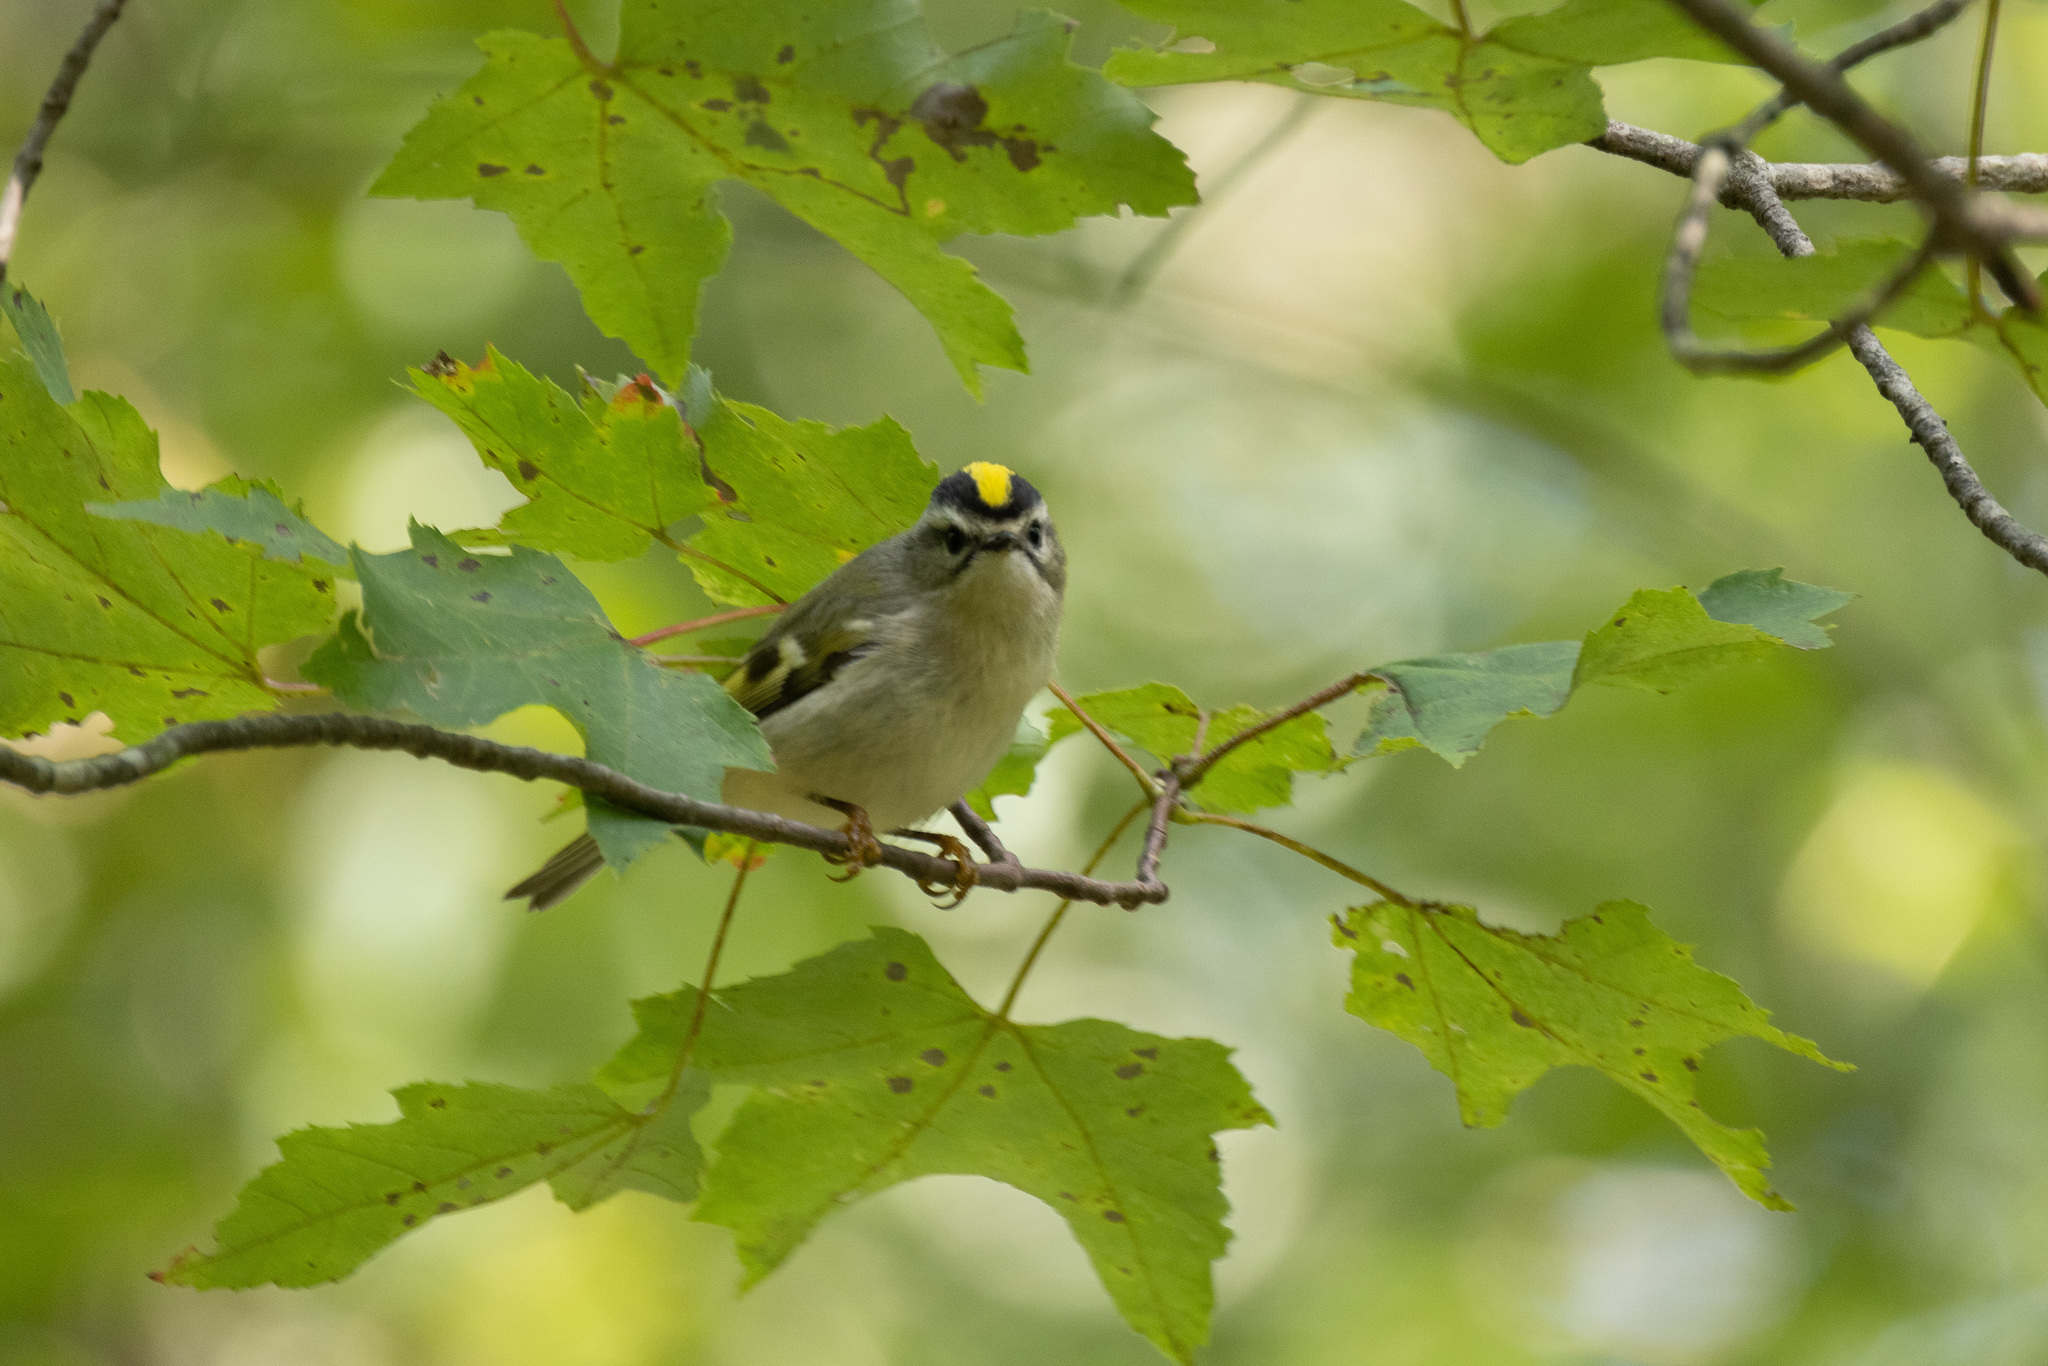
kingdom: Animalia
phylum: Chordata
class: Aves
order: Passeriformes
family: Regulidae
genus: Regulus
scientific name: Regulus satrapa
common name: Golden-crowned kinglet
